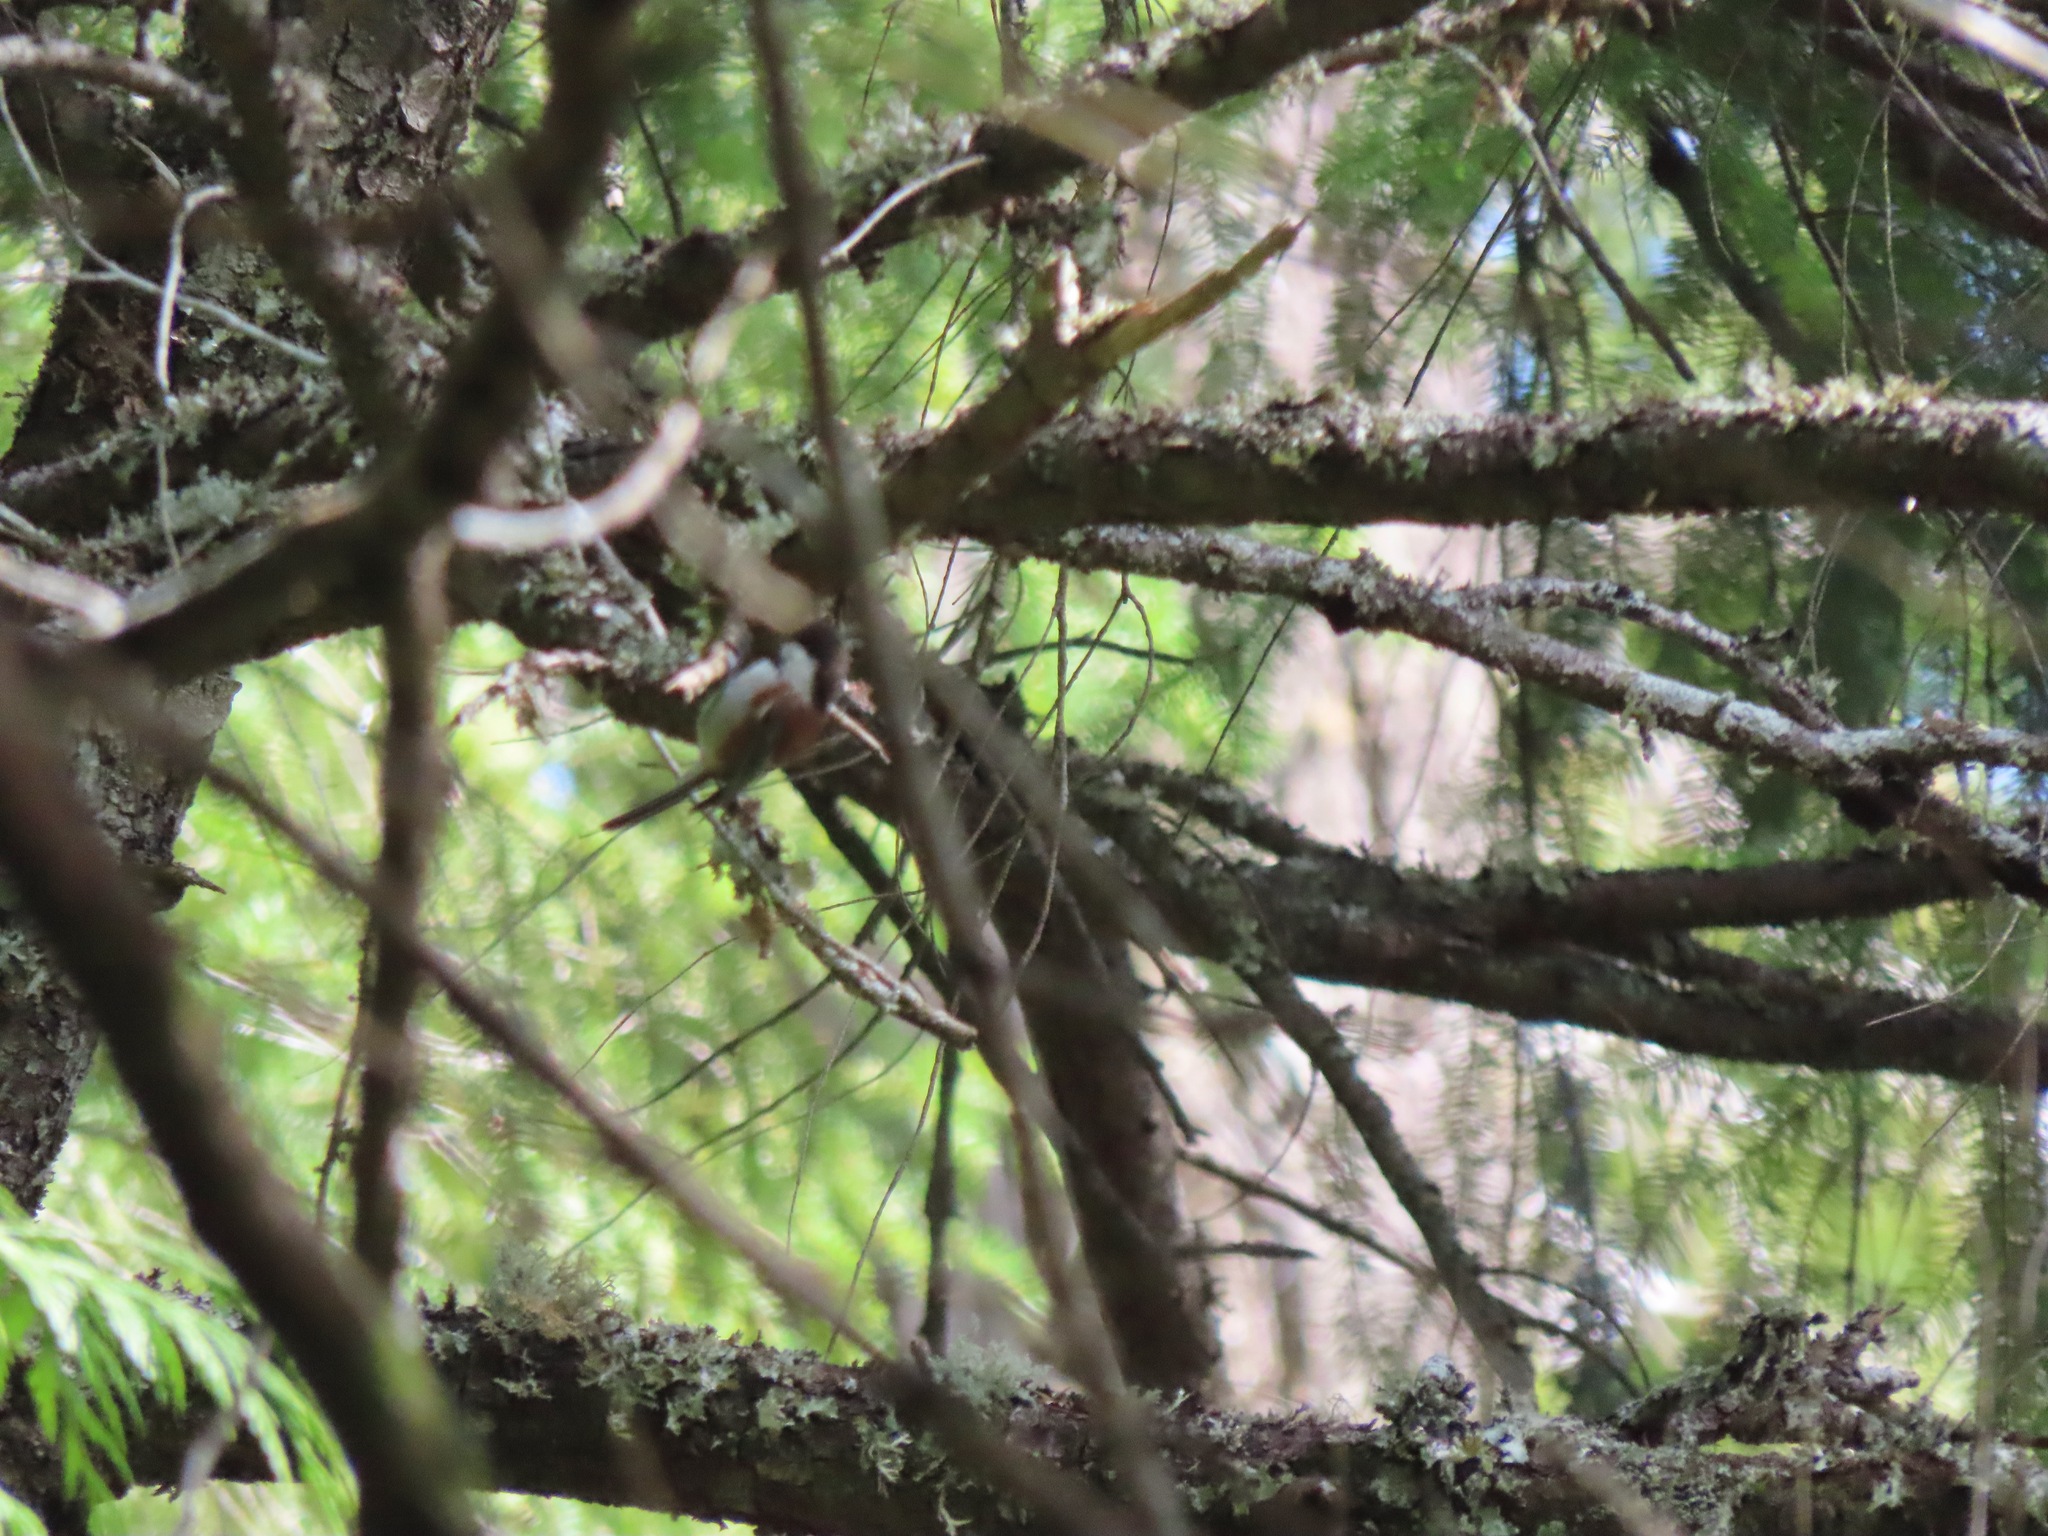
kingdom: Animalia
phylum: Chordata
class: Aves
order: Passeriformes
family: Paridae
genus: Poecile
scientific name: Poecile rufescens
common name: Chestnut-backed chickadee
